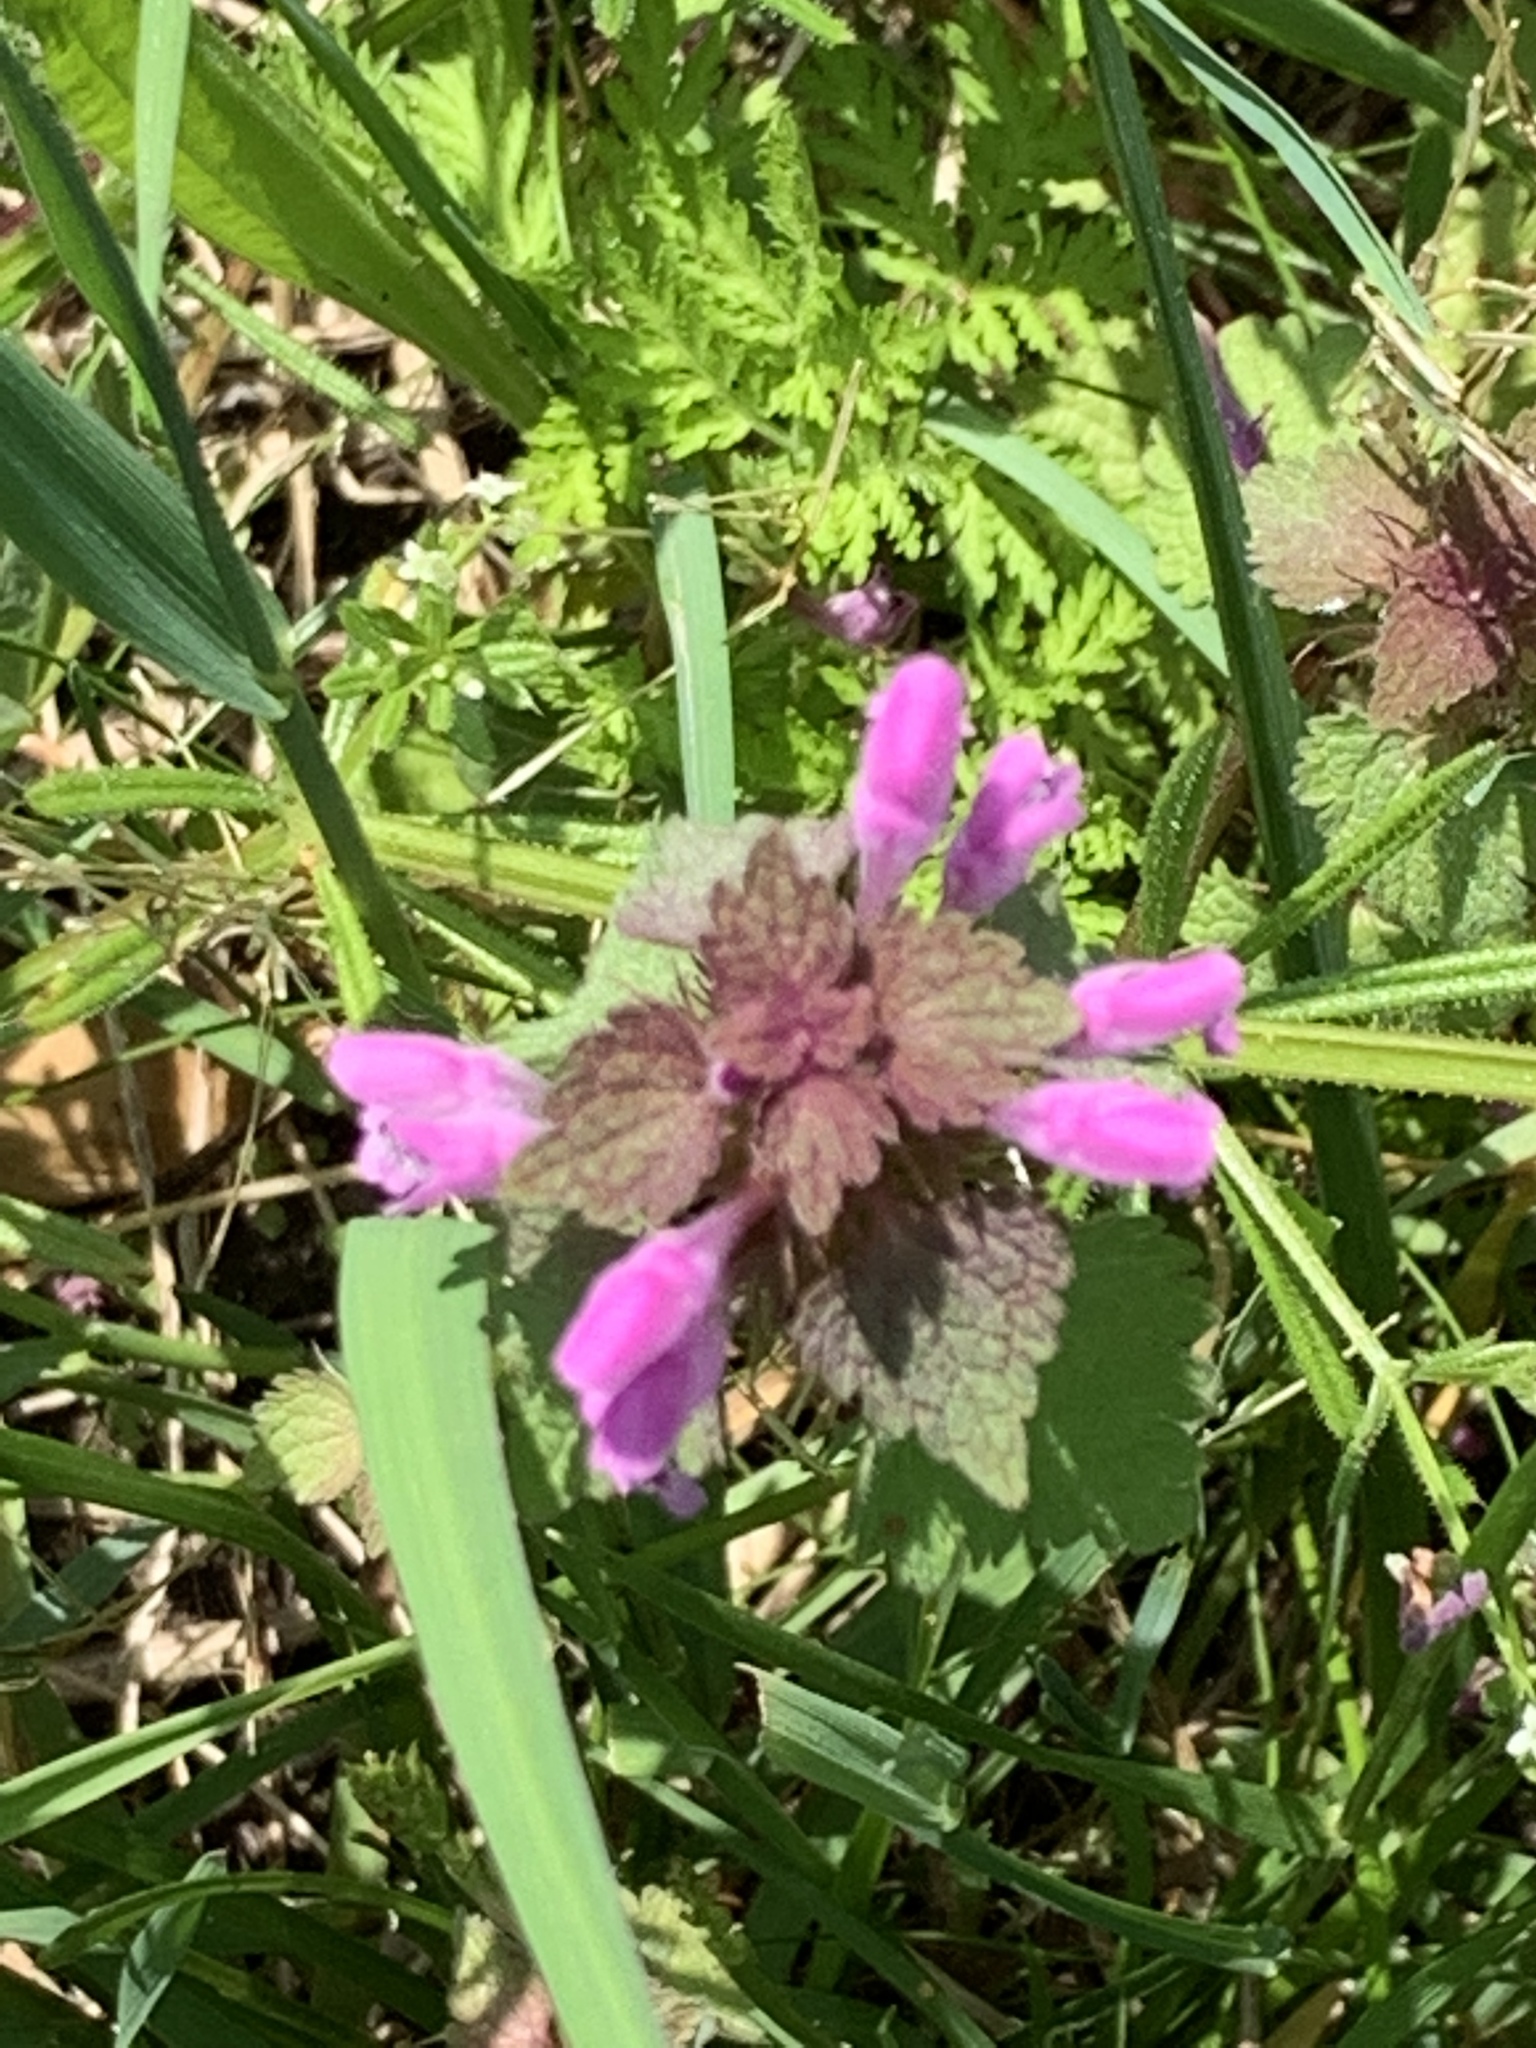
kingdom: Plantae
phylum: Tracheophyta
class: Magnoliopsida
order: Lamiales
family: Lamiaceae
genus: Lamium
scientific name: Lamium purpureum
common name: Red dead-nettle
